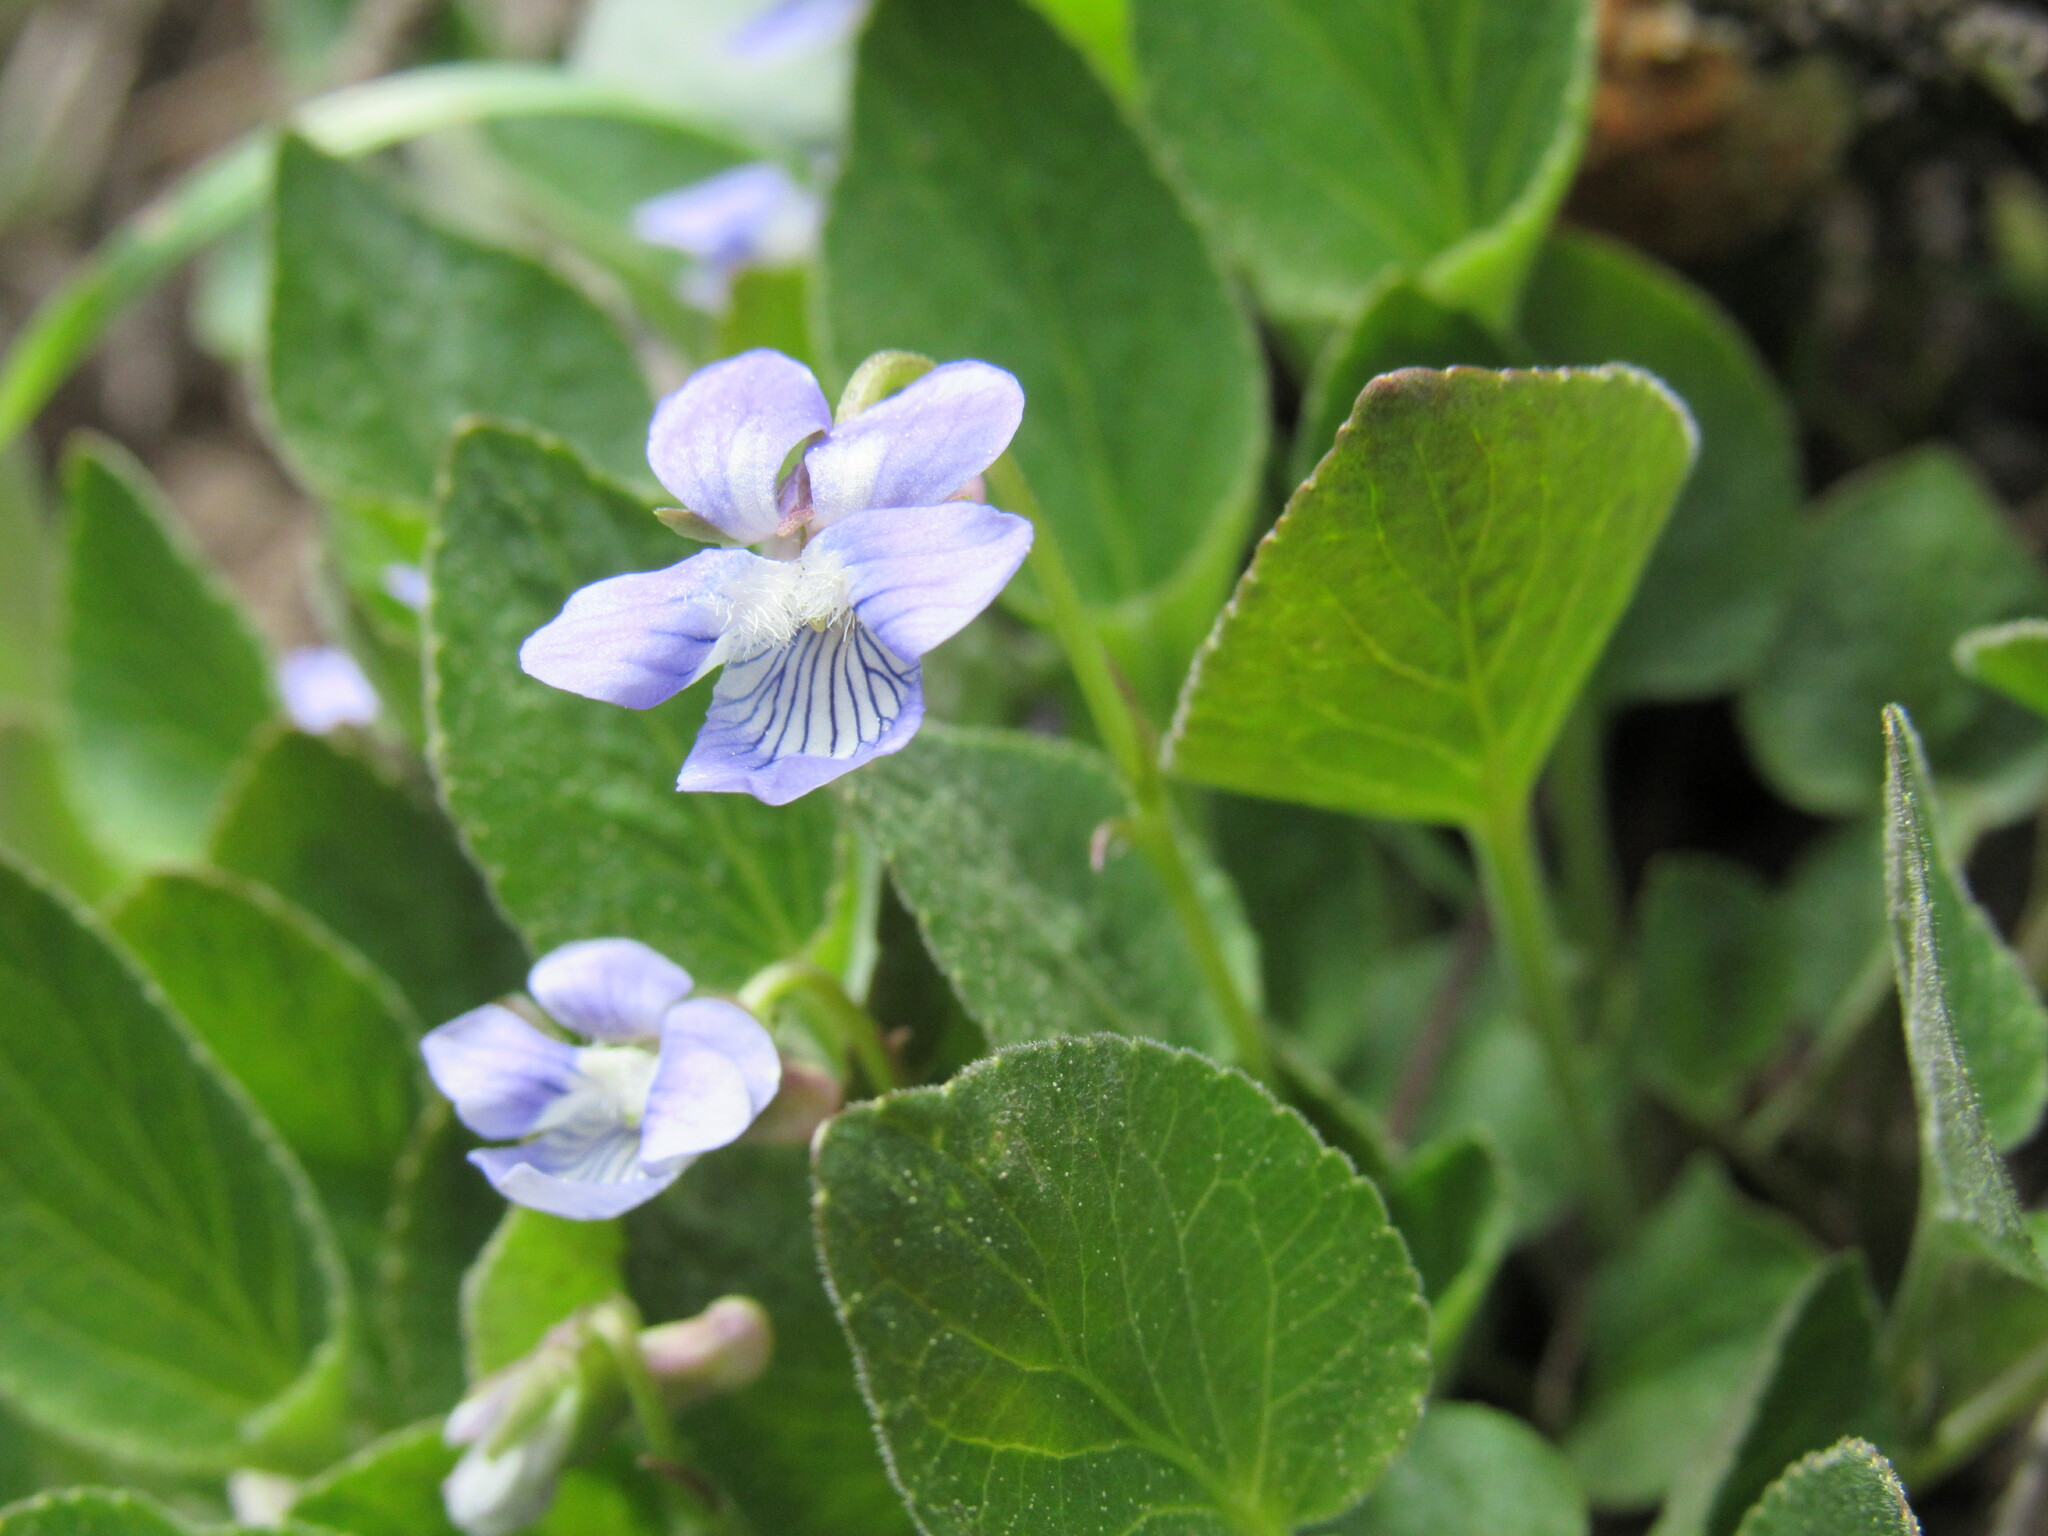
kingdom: Plantae
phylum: Tracheophyta
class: Magnoliopsida
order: Malpighiales
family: Violaceae
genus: Viola
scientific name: Viola adunca
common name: Sand violet
